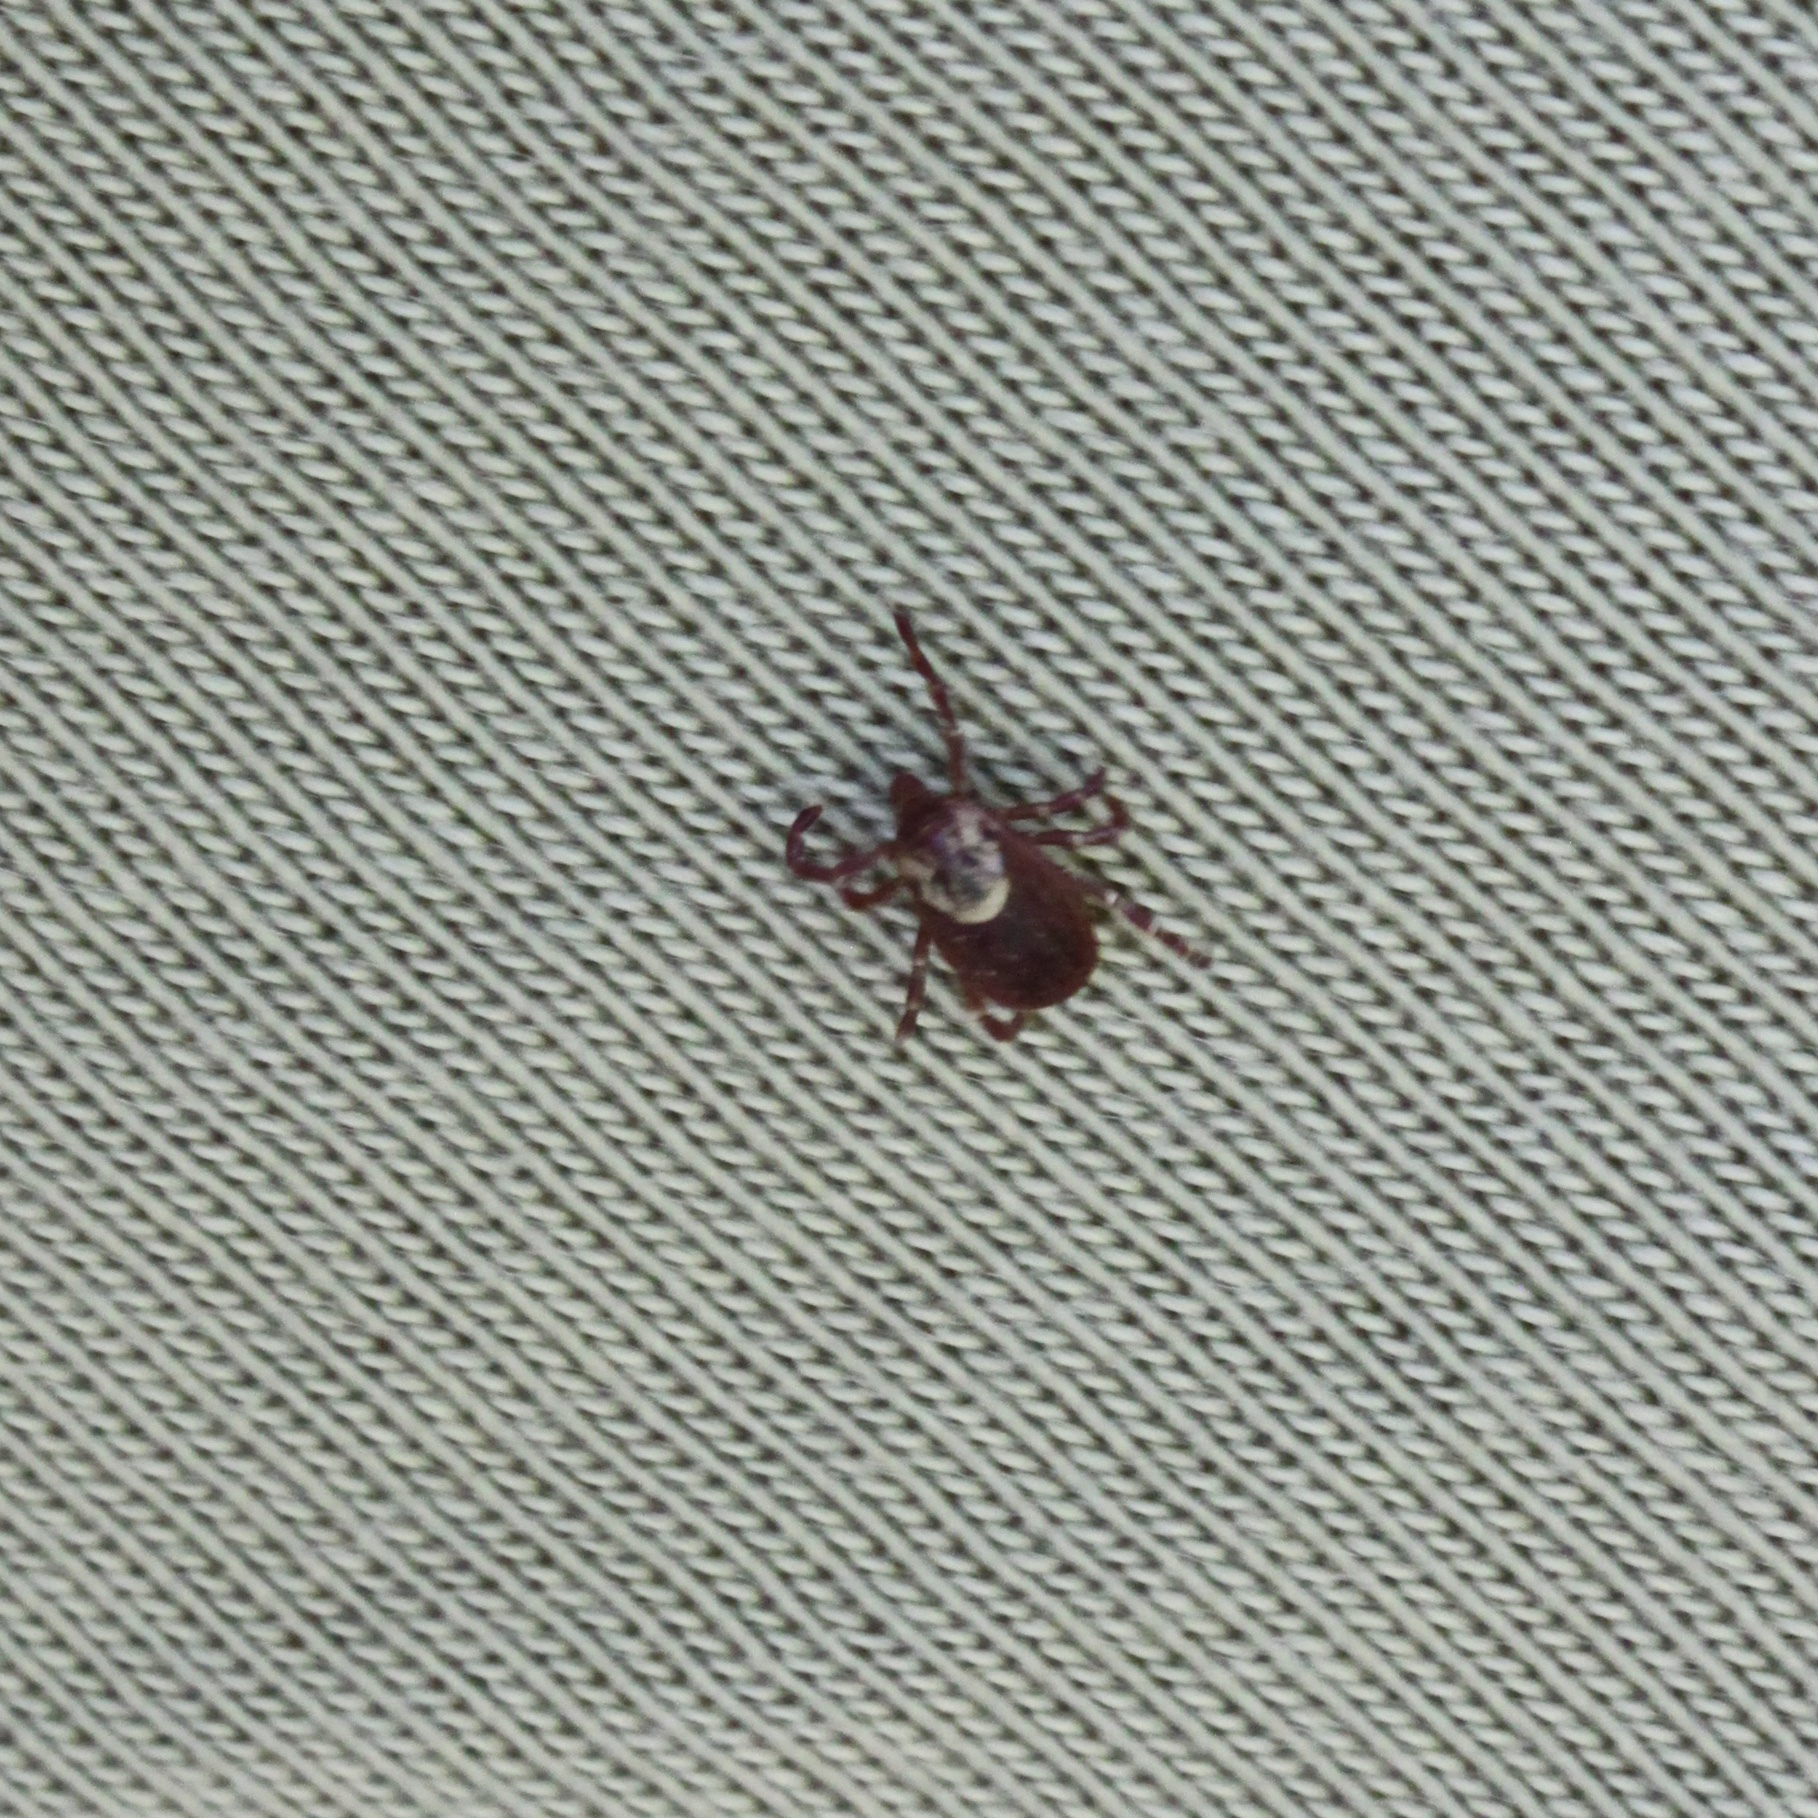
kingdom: Animalia
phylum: Arthropoda
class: Arachnida
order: Ixodida
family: Ixodidae
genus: Dermacentor
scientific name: Dermacentor variabilis
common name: American dog tick
